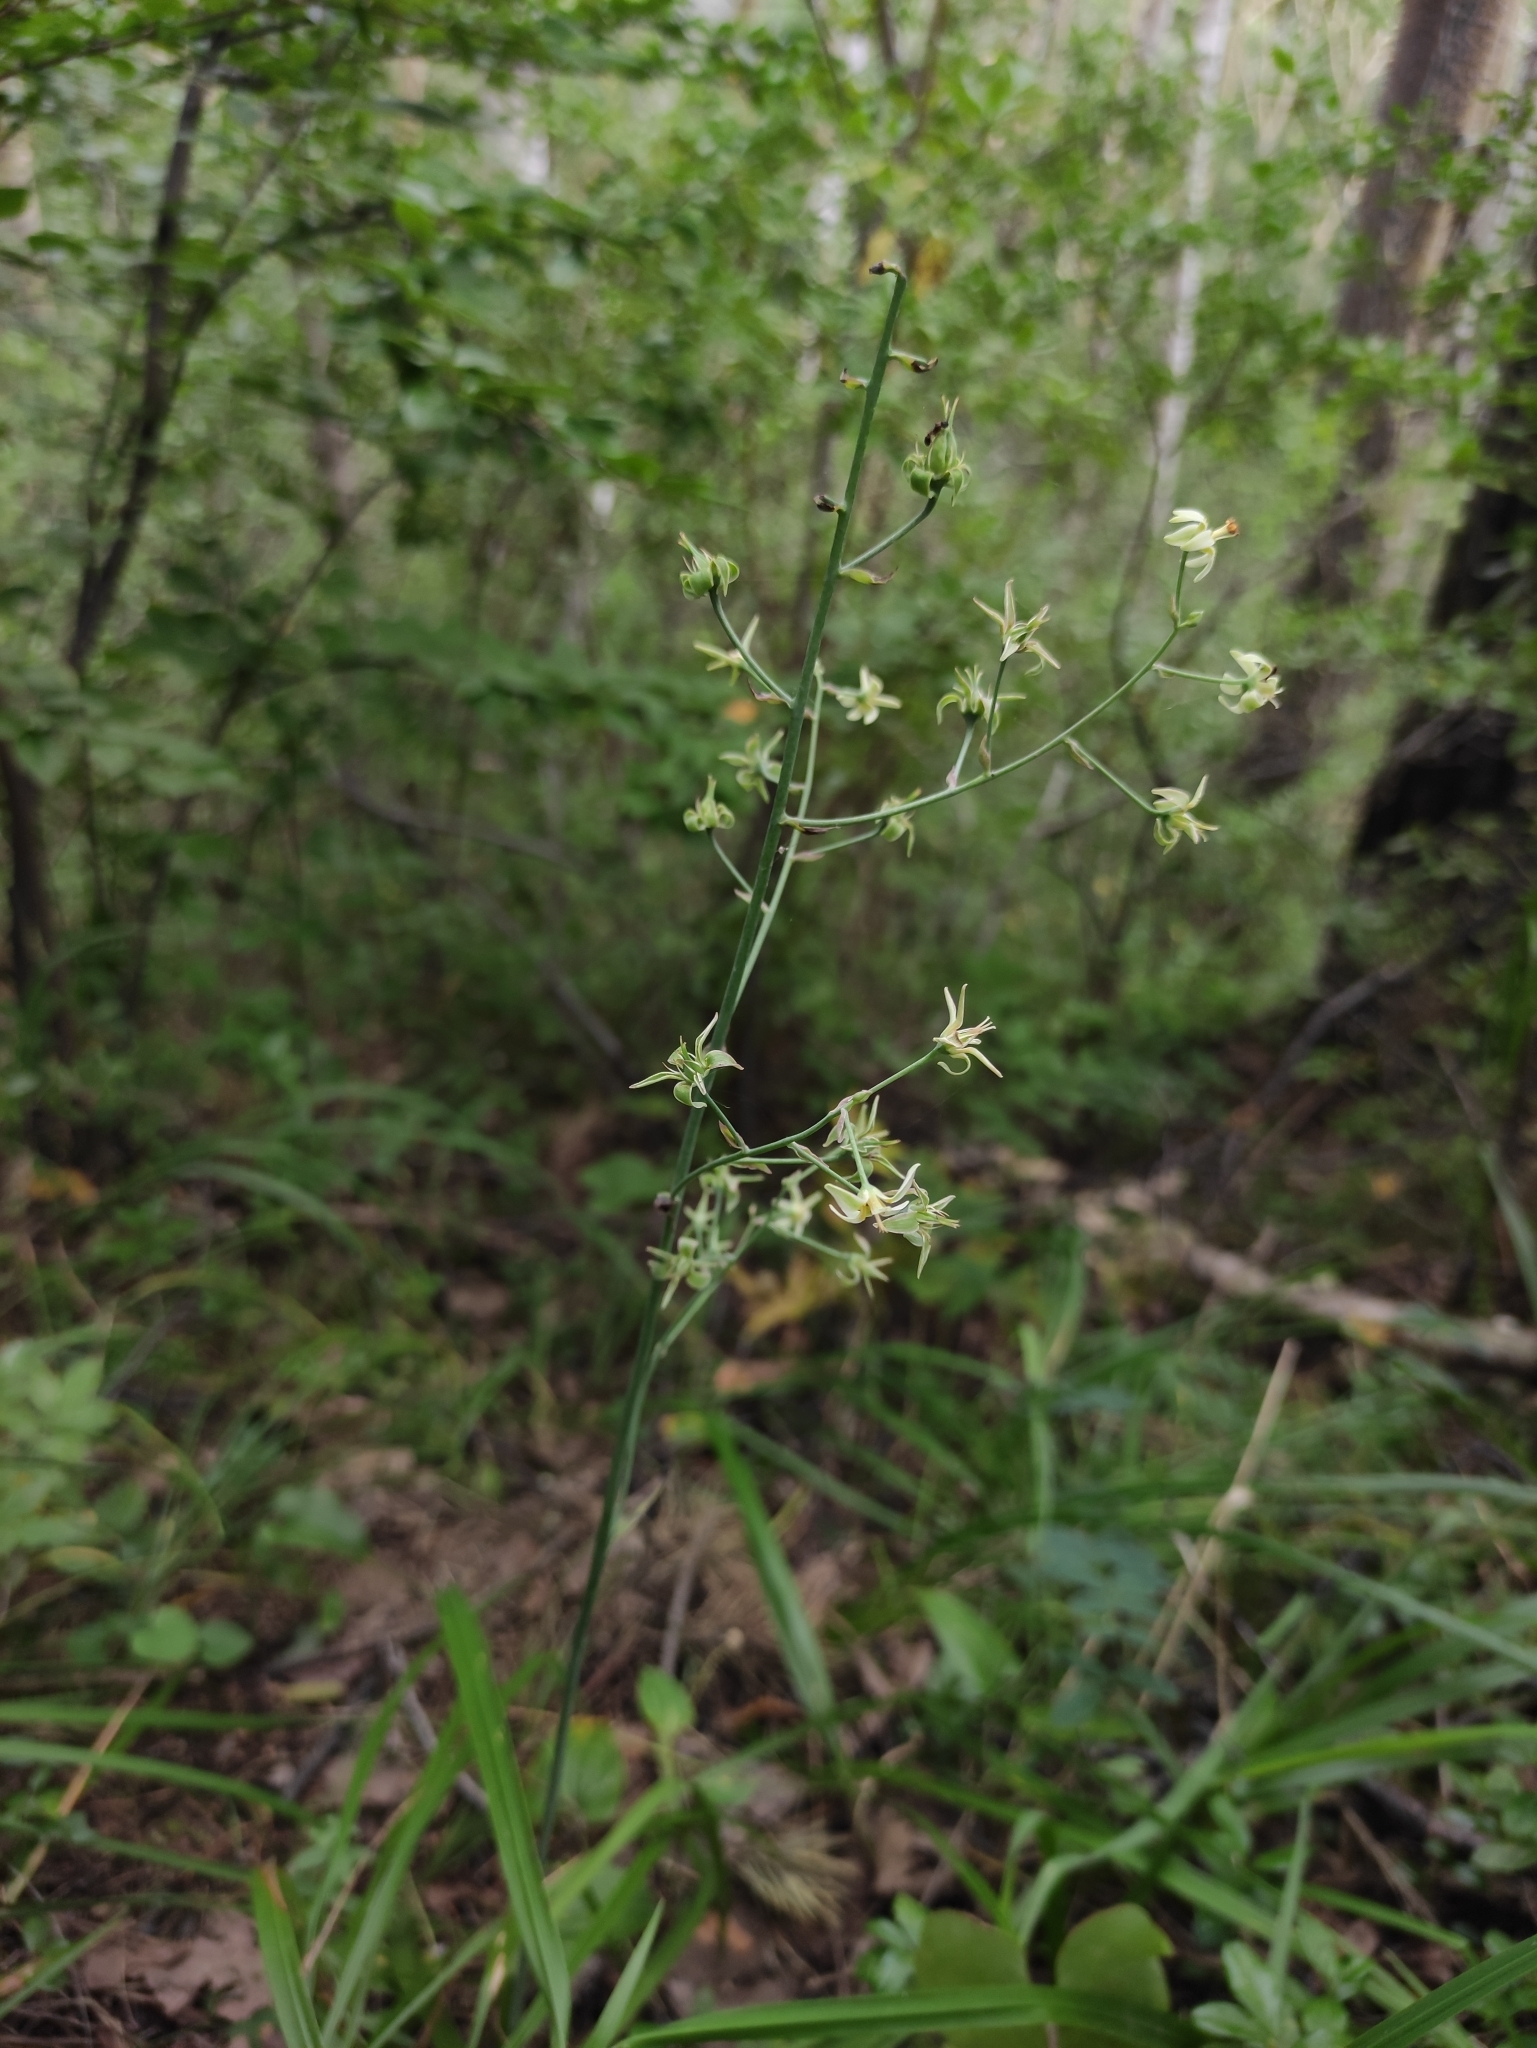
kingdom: Plantae
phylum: Tracheophyta
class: Liliopsida
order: Liliales
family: Melanthiaceae
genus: Anticlea
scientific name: Anticlea sibirica
